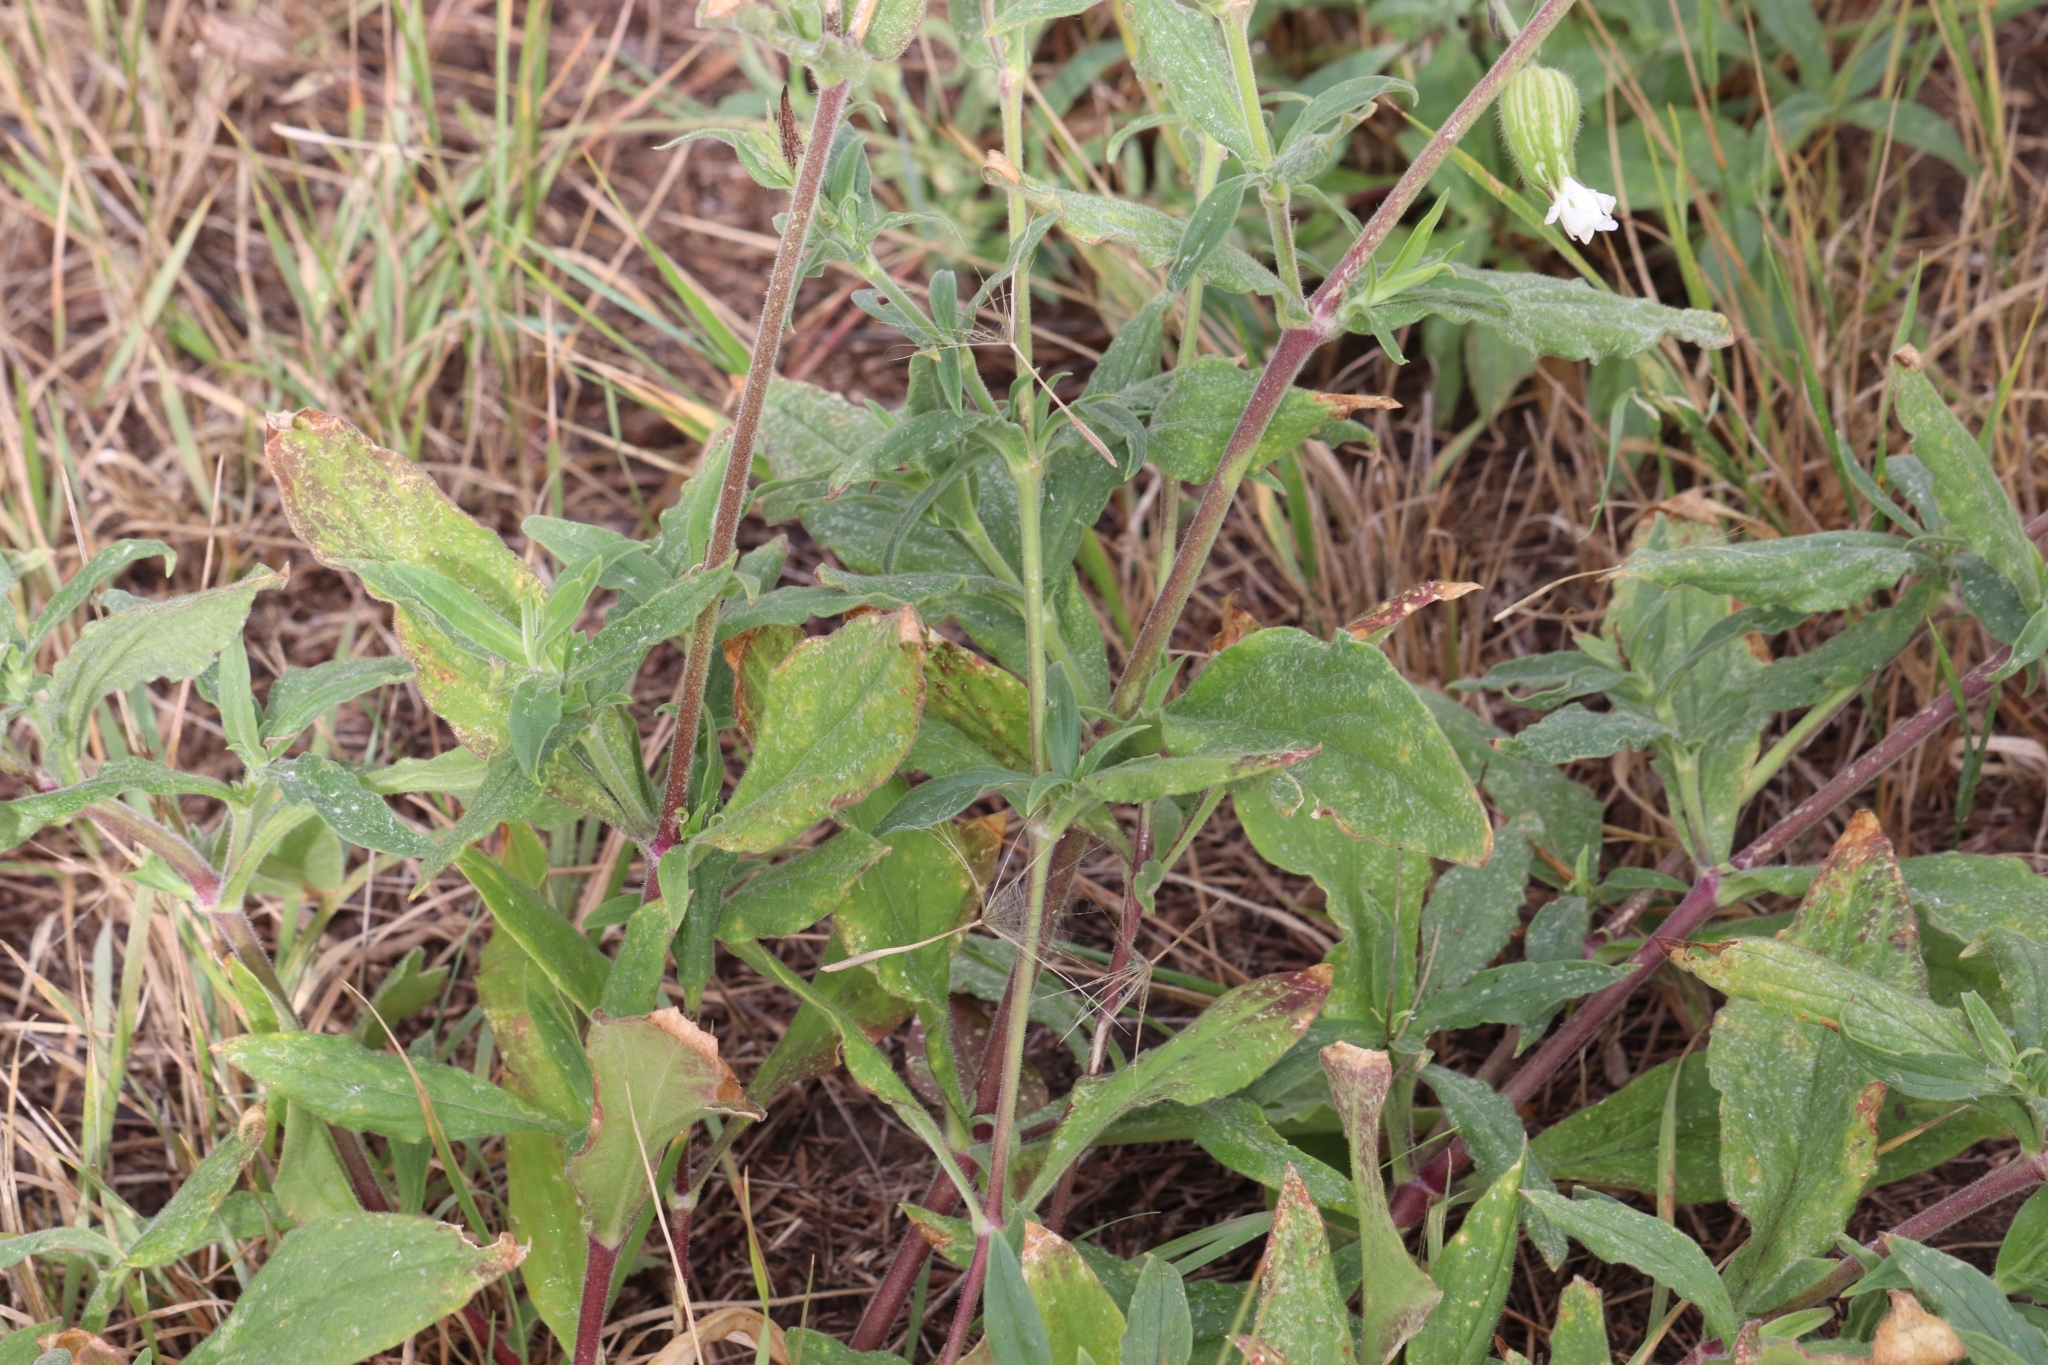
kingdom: Plantae
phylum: Tracheophyta
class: Magnoliopsida
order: Caryophyllales
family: Caryophyllaceae
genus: Silene
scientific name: Silene latifolia
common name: White campion
